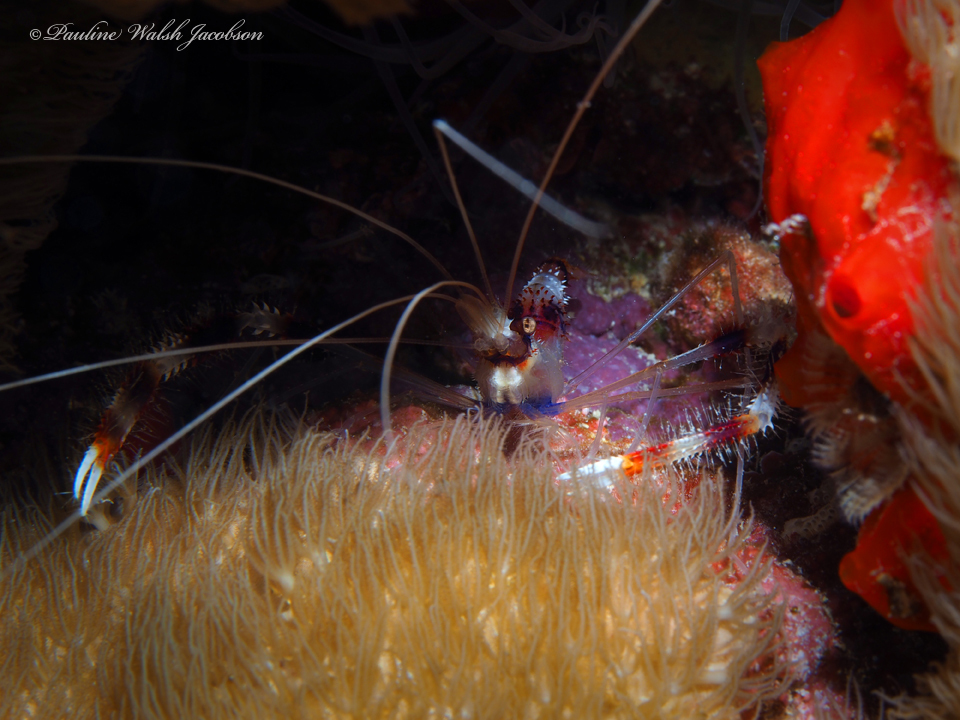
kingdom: Animalia
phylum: Arthropoda
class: Malacostraca
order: Decapoda
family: Stenopodidae
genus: Stenopus
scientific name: Stenopus hispidus
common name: Banded coral shrimp
